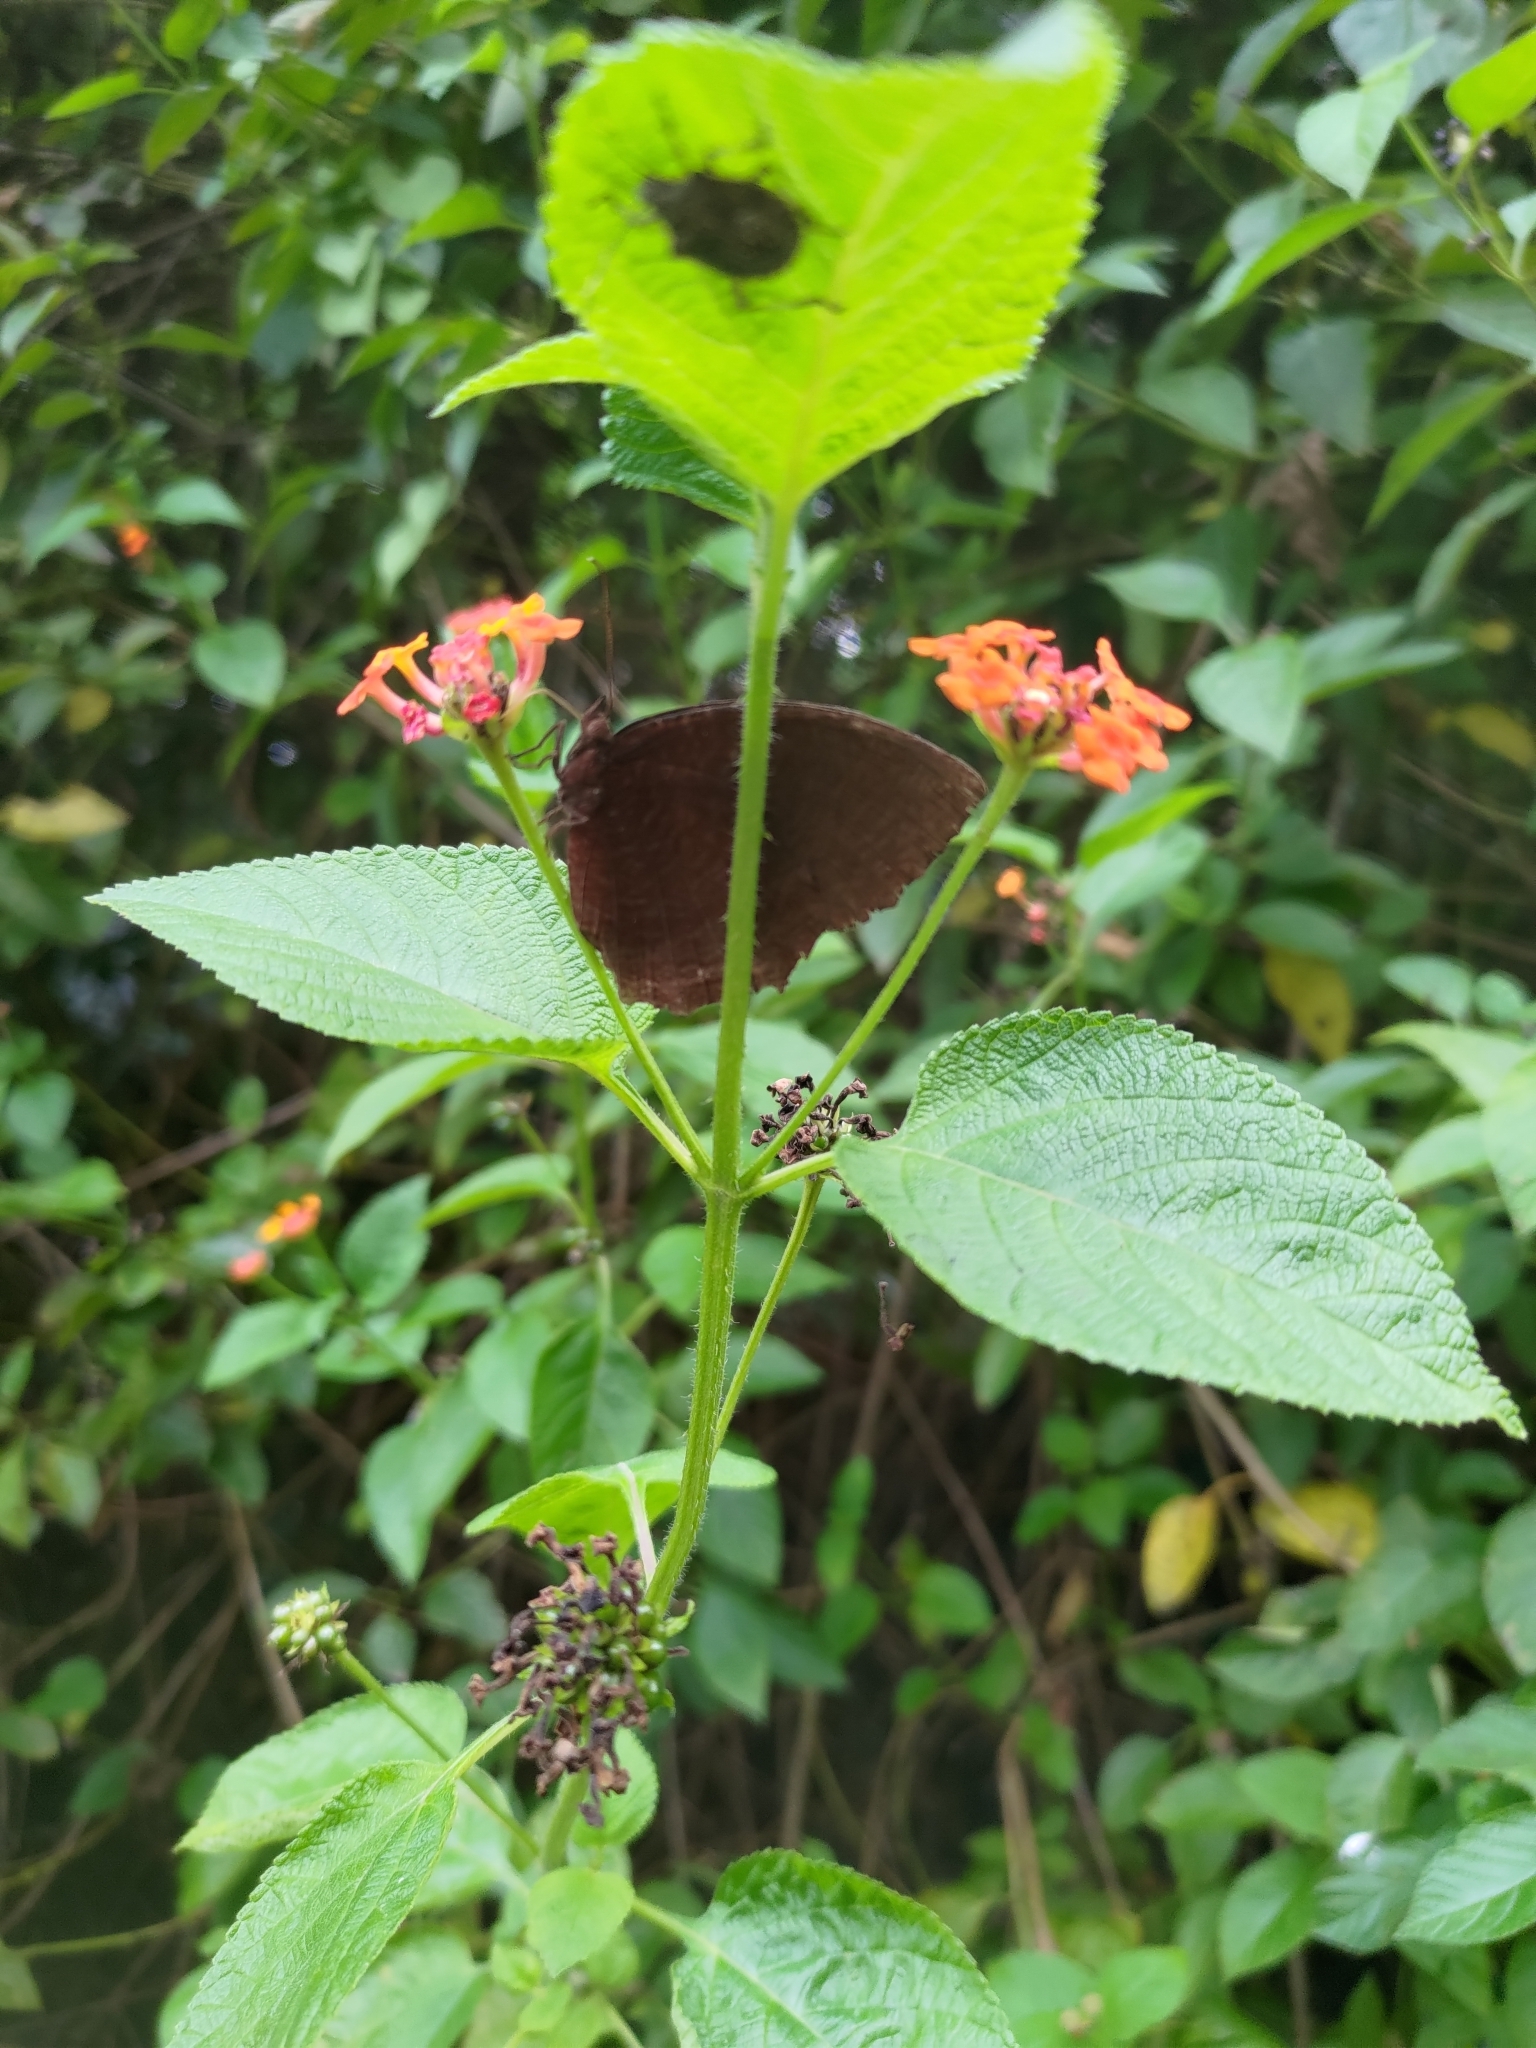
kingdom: Animalia
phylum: Arthropoda
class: Insecta
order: Lepidoptera
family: Nymphalidae
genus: Elymnias
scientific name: Elymnias hypermnestra
